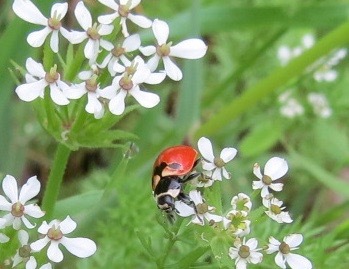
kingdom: Animalia
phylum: Arthropoda
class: Insecta
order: Coleoptera
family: Coccinellidae
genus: Coccinella
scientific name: Coccinella trifasciata
